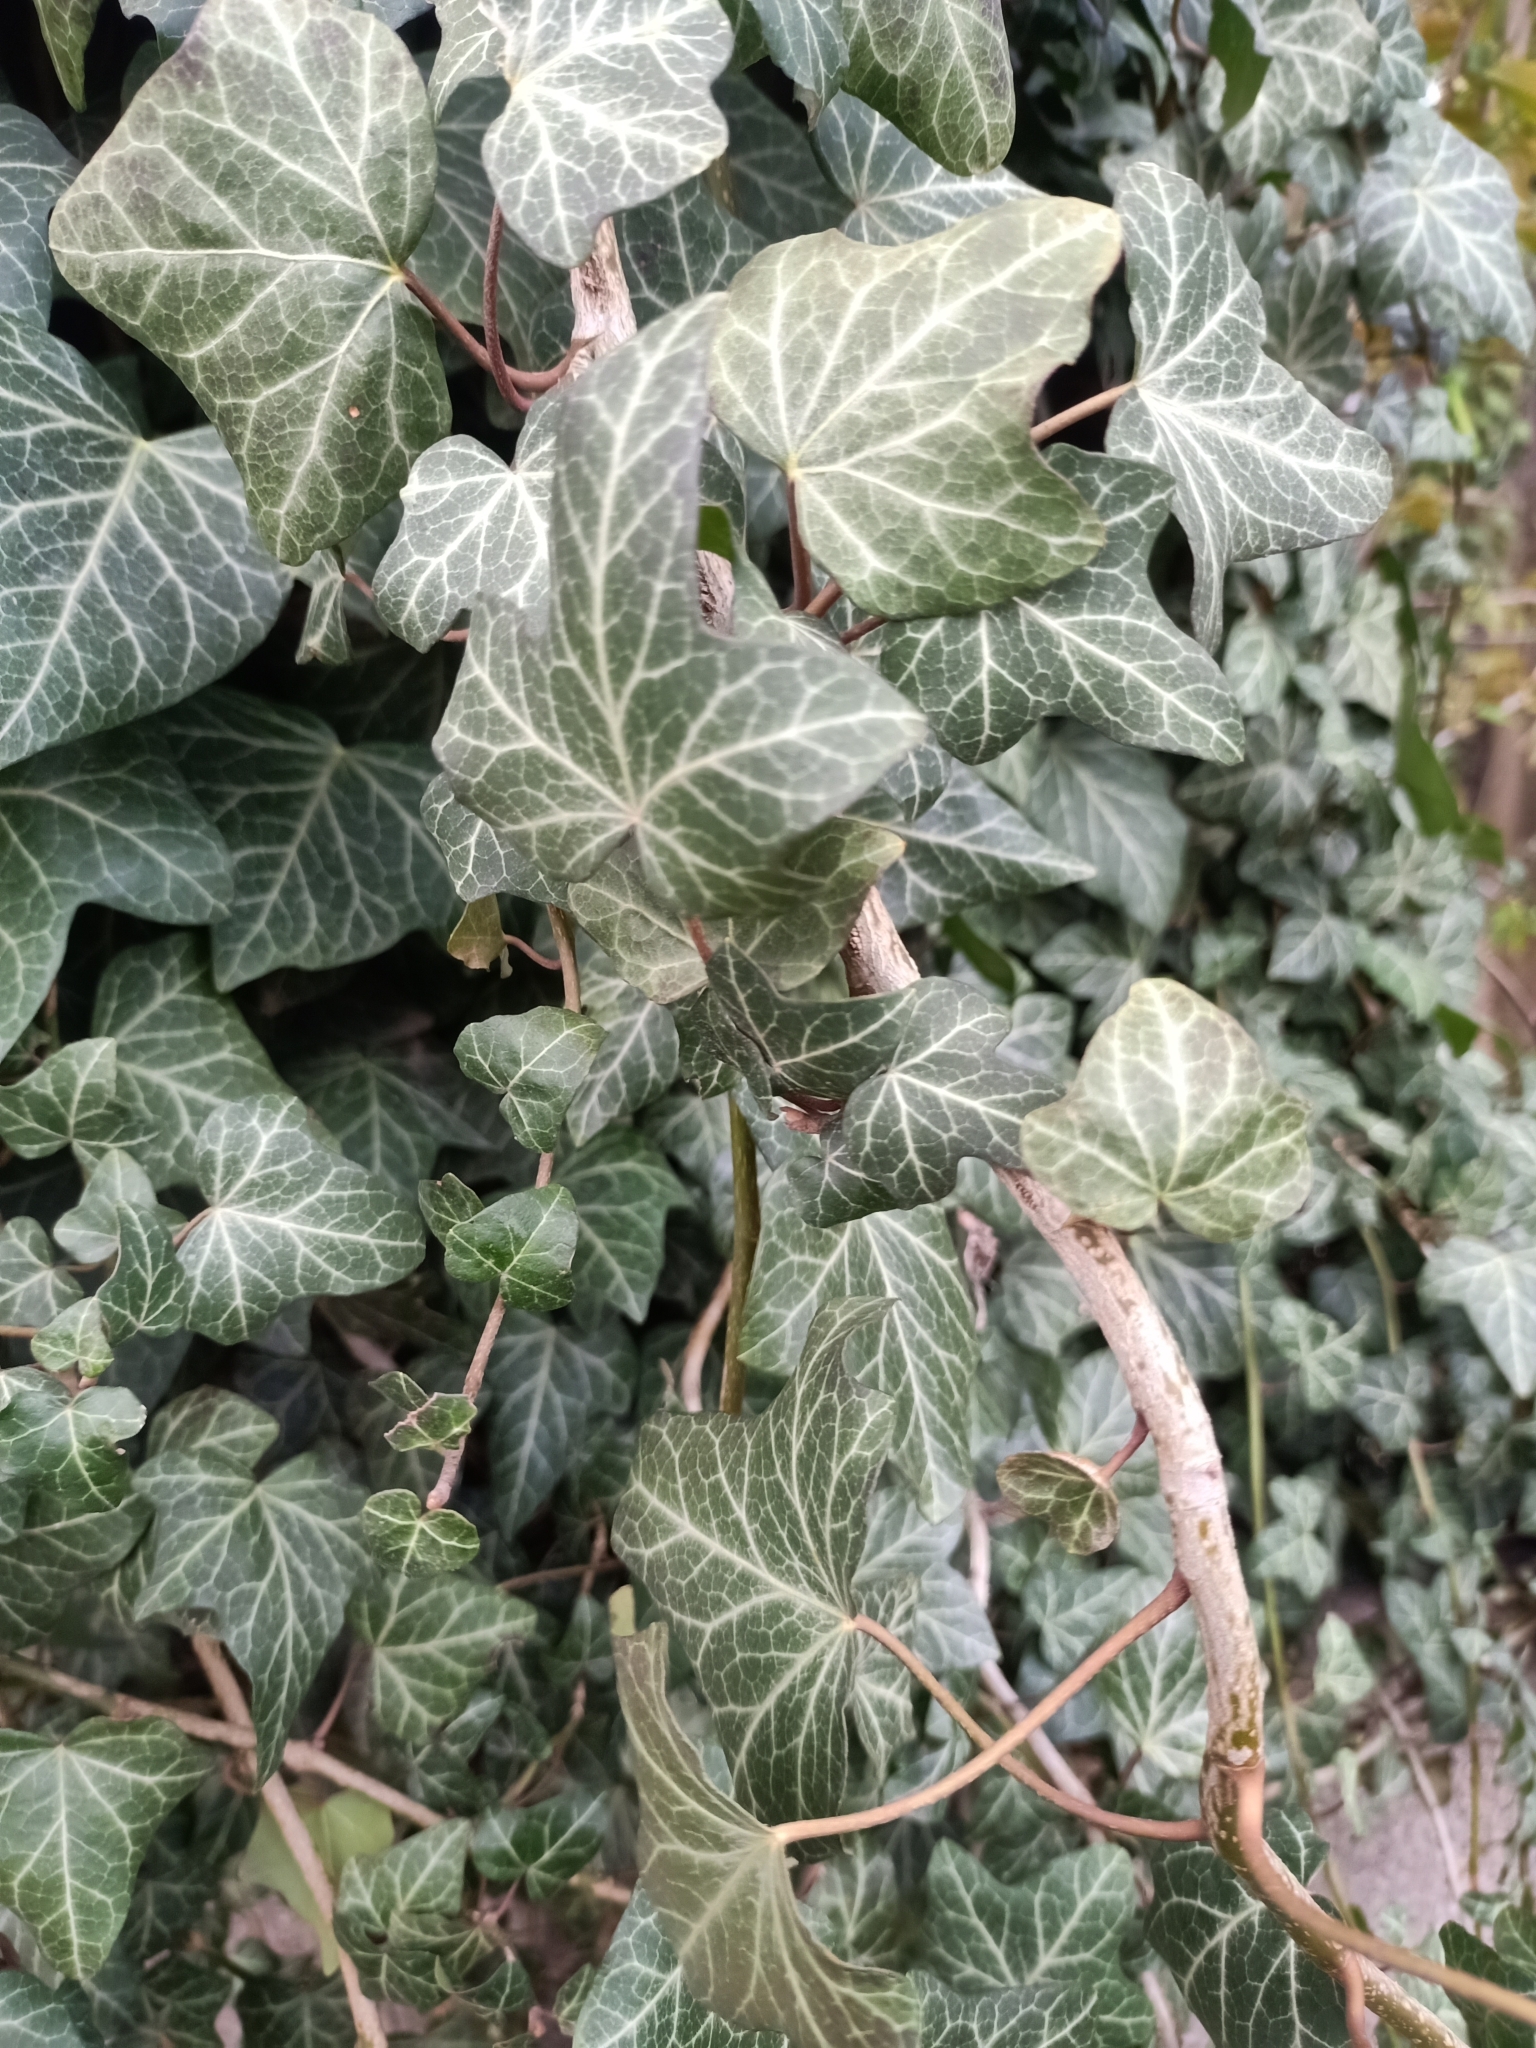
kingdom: Plantae
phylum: Tracheophyta
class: Magnoliopsida
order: Apiales
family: Araliaceae
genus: Hedera
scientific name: Hedera helix
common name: Ivy
